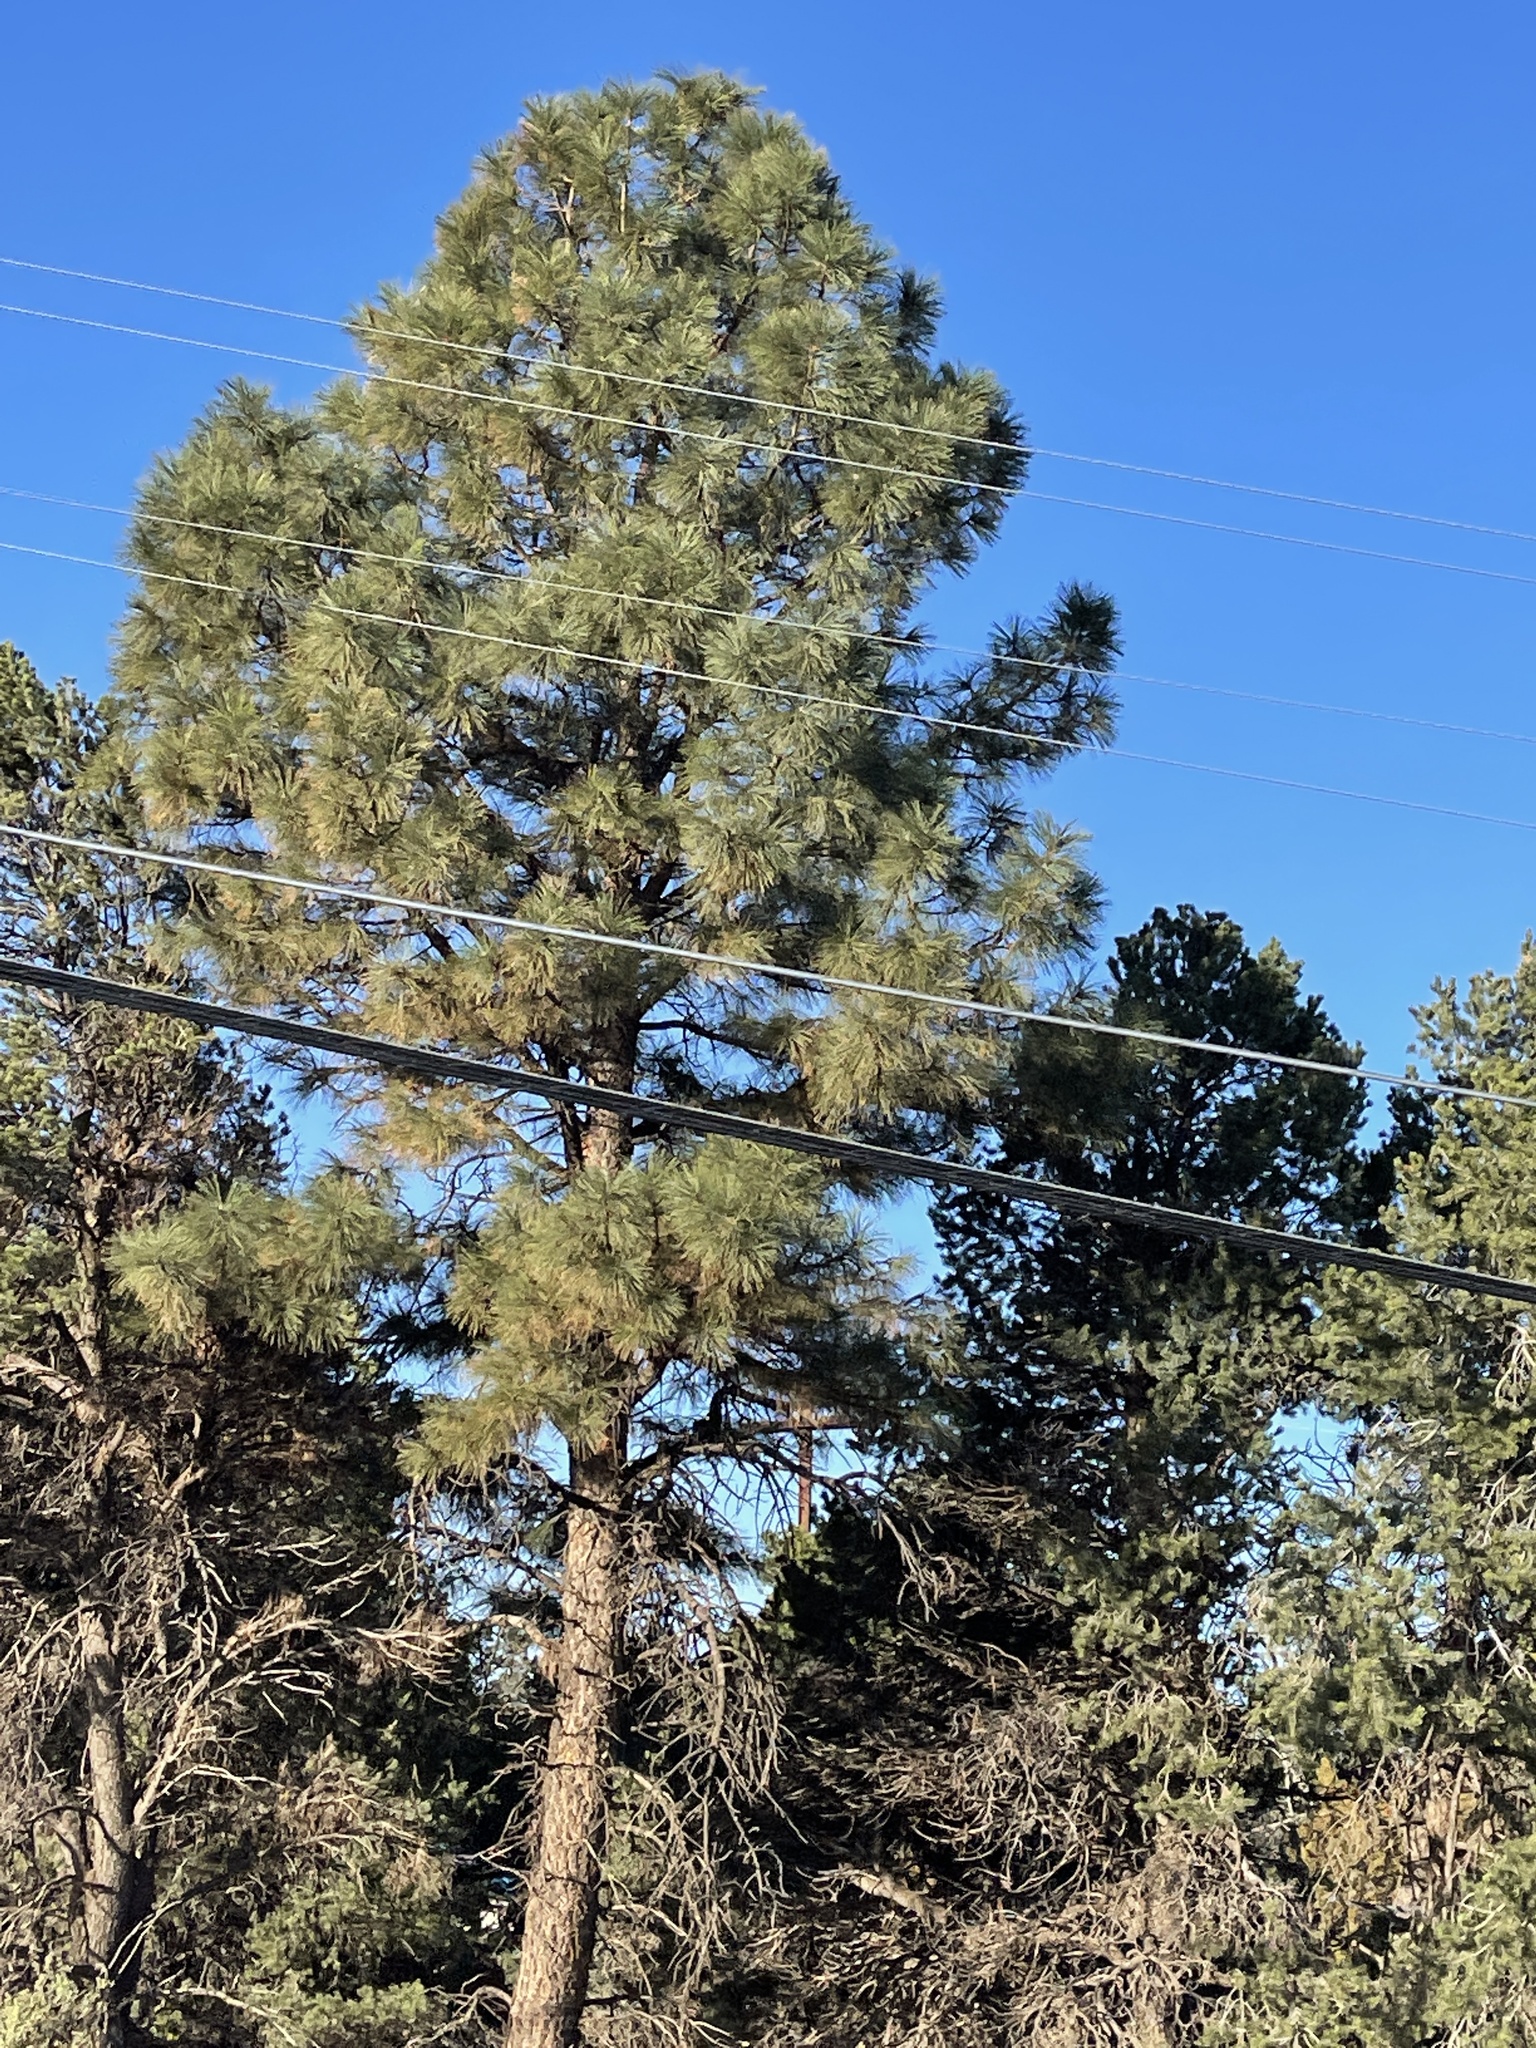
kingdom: Plantae
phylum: Tracheophyta
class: Pinopsida
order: Pinales
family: Pinaceae
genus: Pinus
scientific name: Pinus ponderosa
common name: Western yellow-pine
